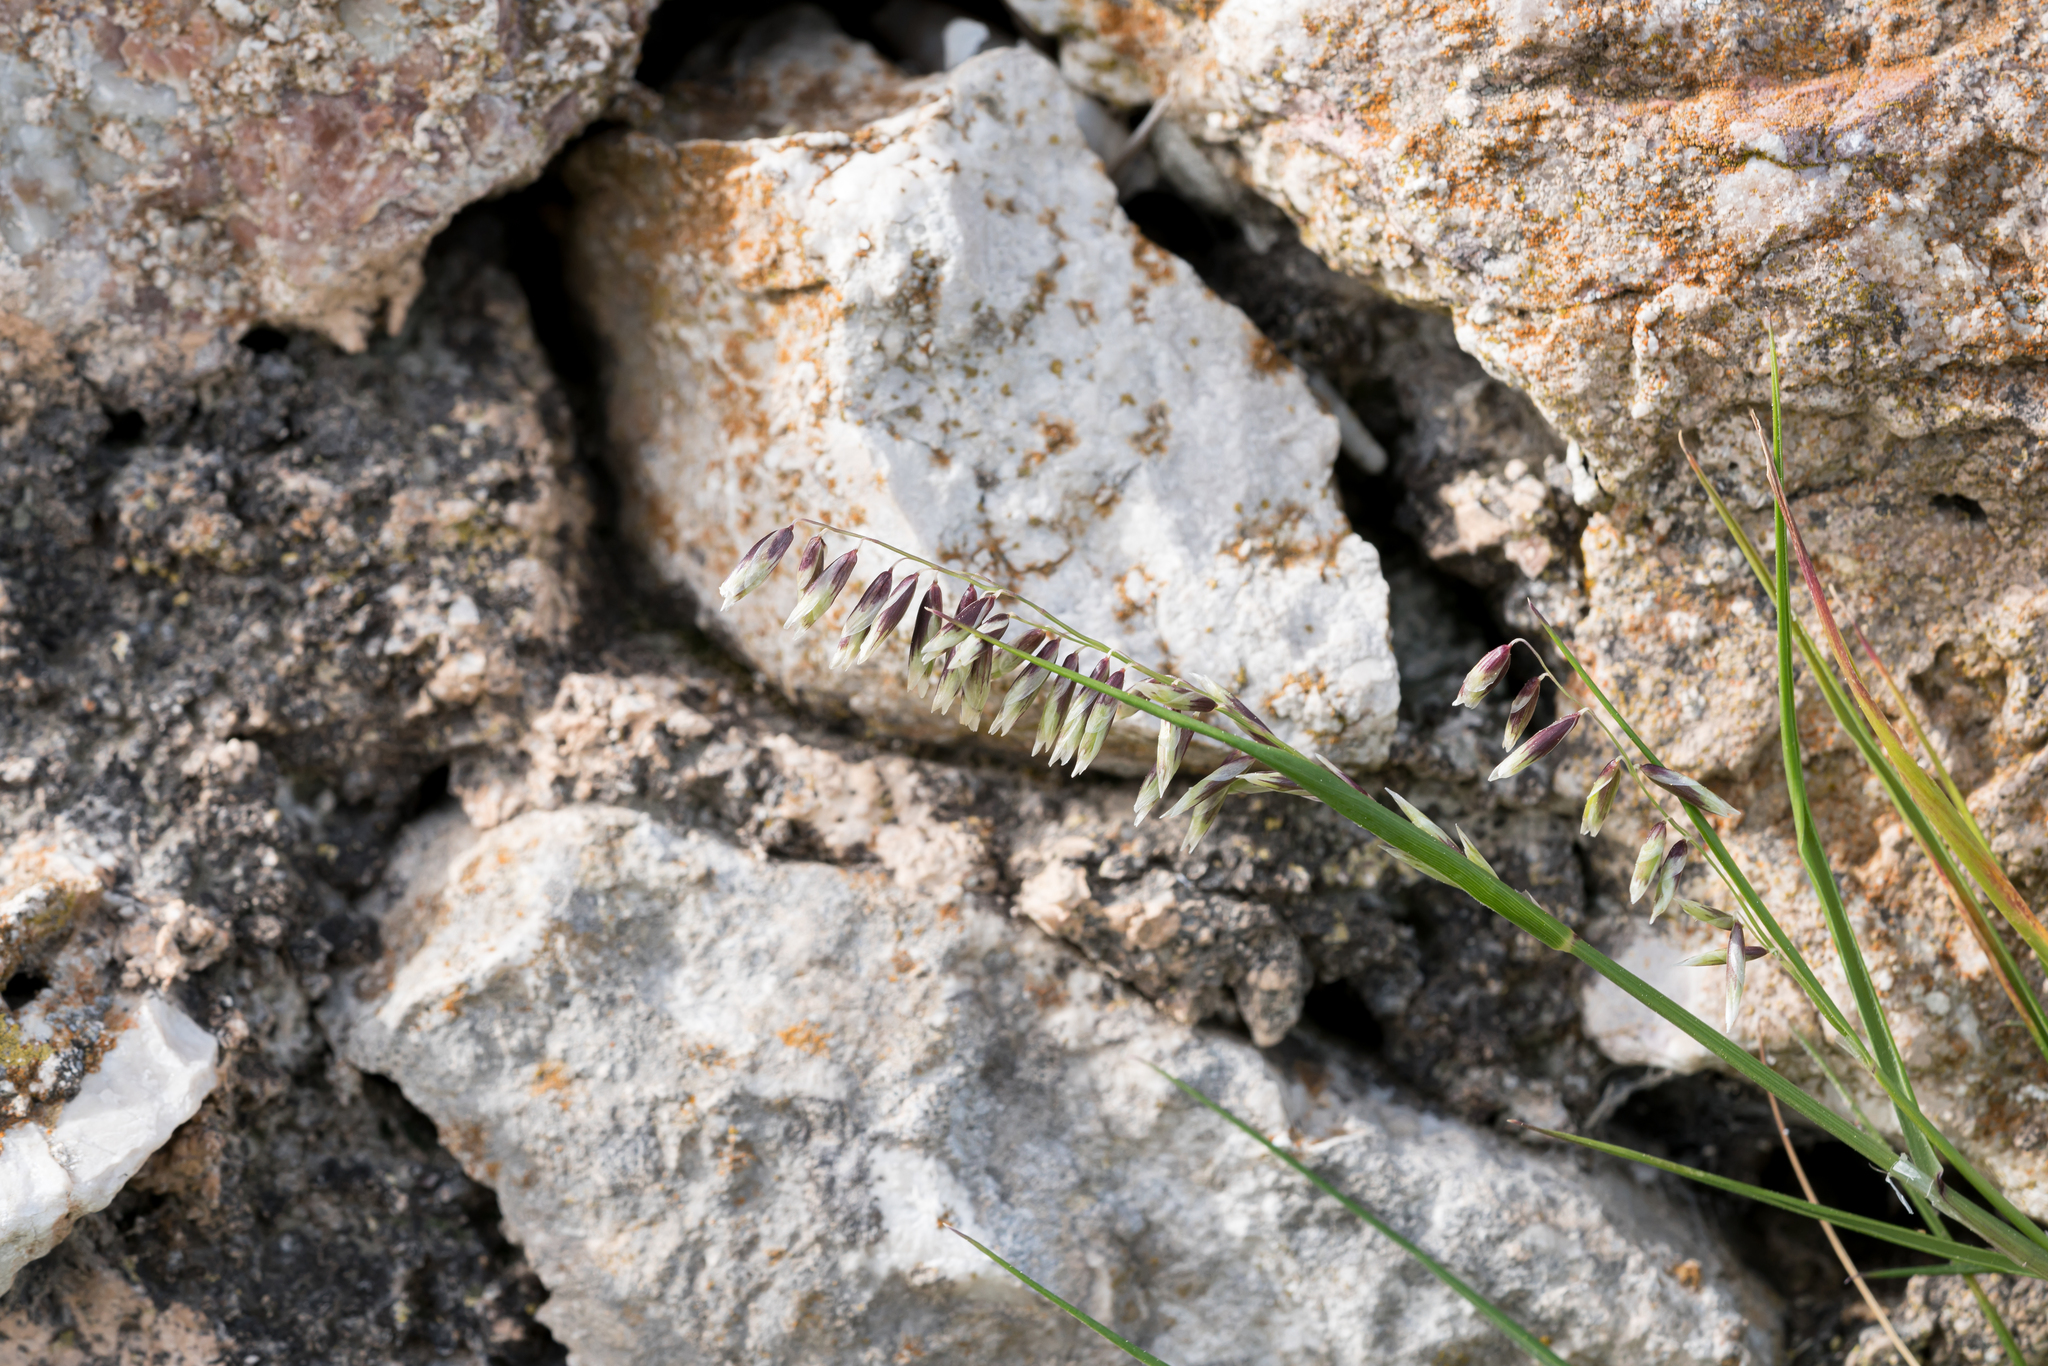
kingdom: Plantae
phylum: Tracheophyta
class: Liliopsida
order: Poales
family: Poaceae
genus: Melica
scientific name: Melica minuta
